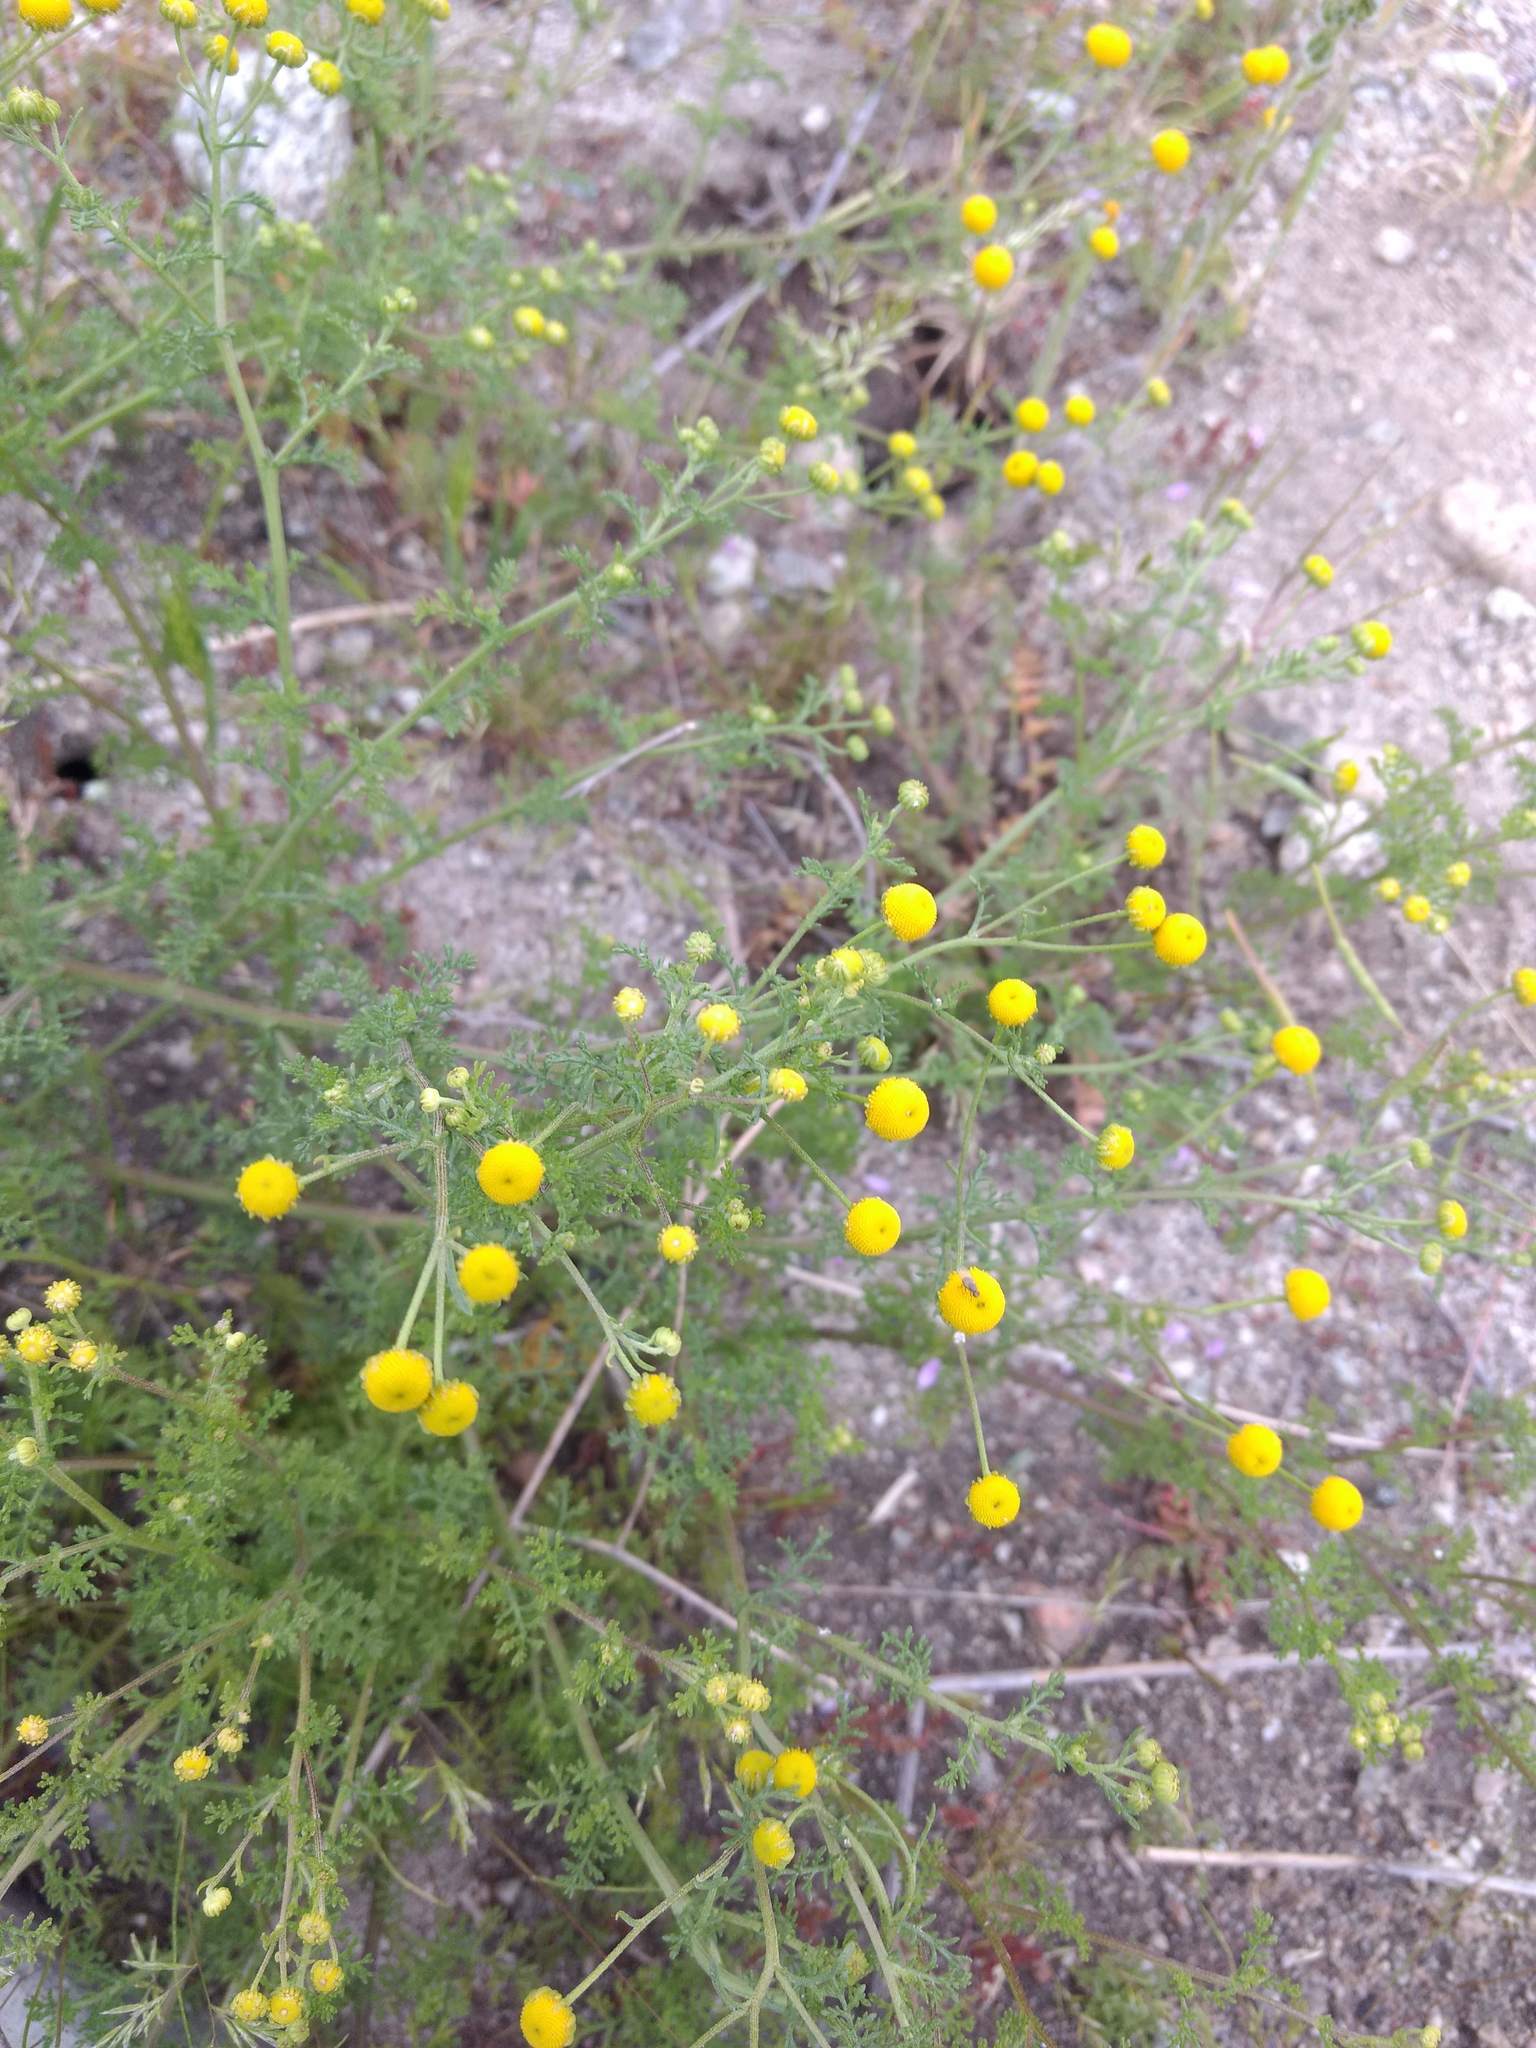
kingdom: Plantae
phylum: Tracheophyta
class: Magnoliopsida
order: Asterales
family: Asteraceae
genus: Oncosiphon
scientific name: Oncosiphon pilulifer
